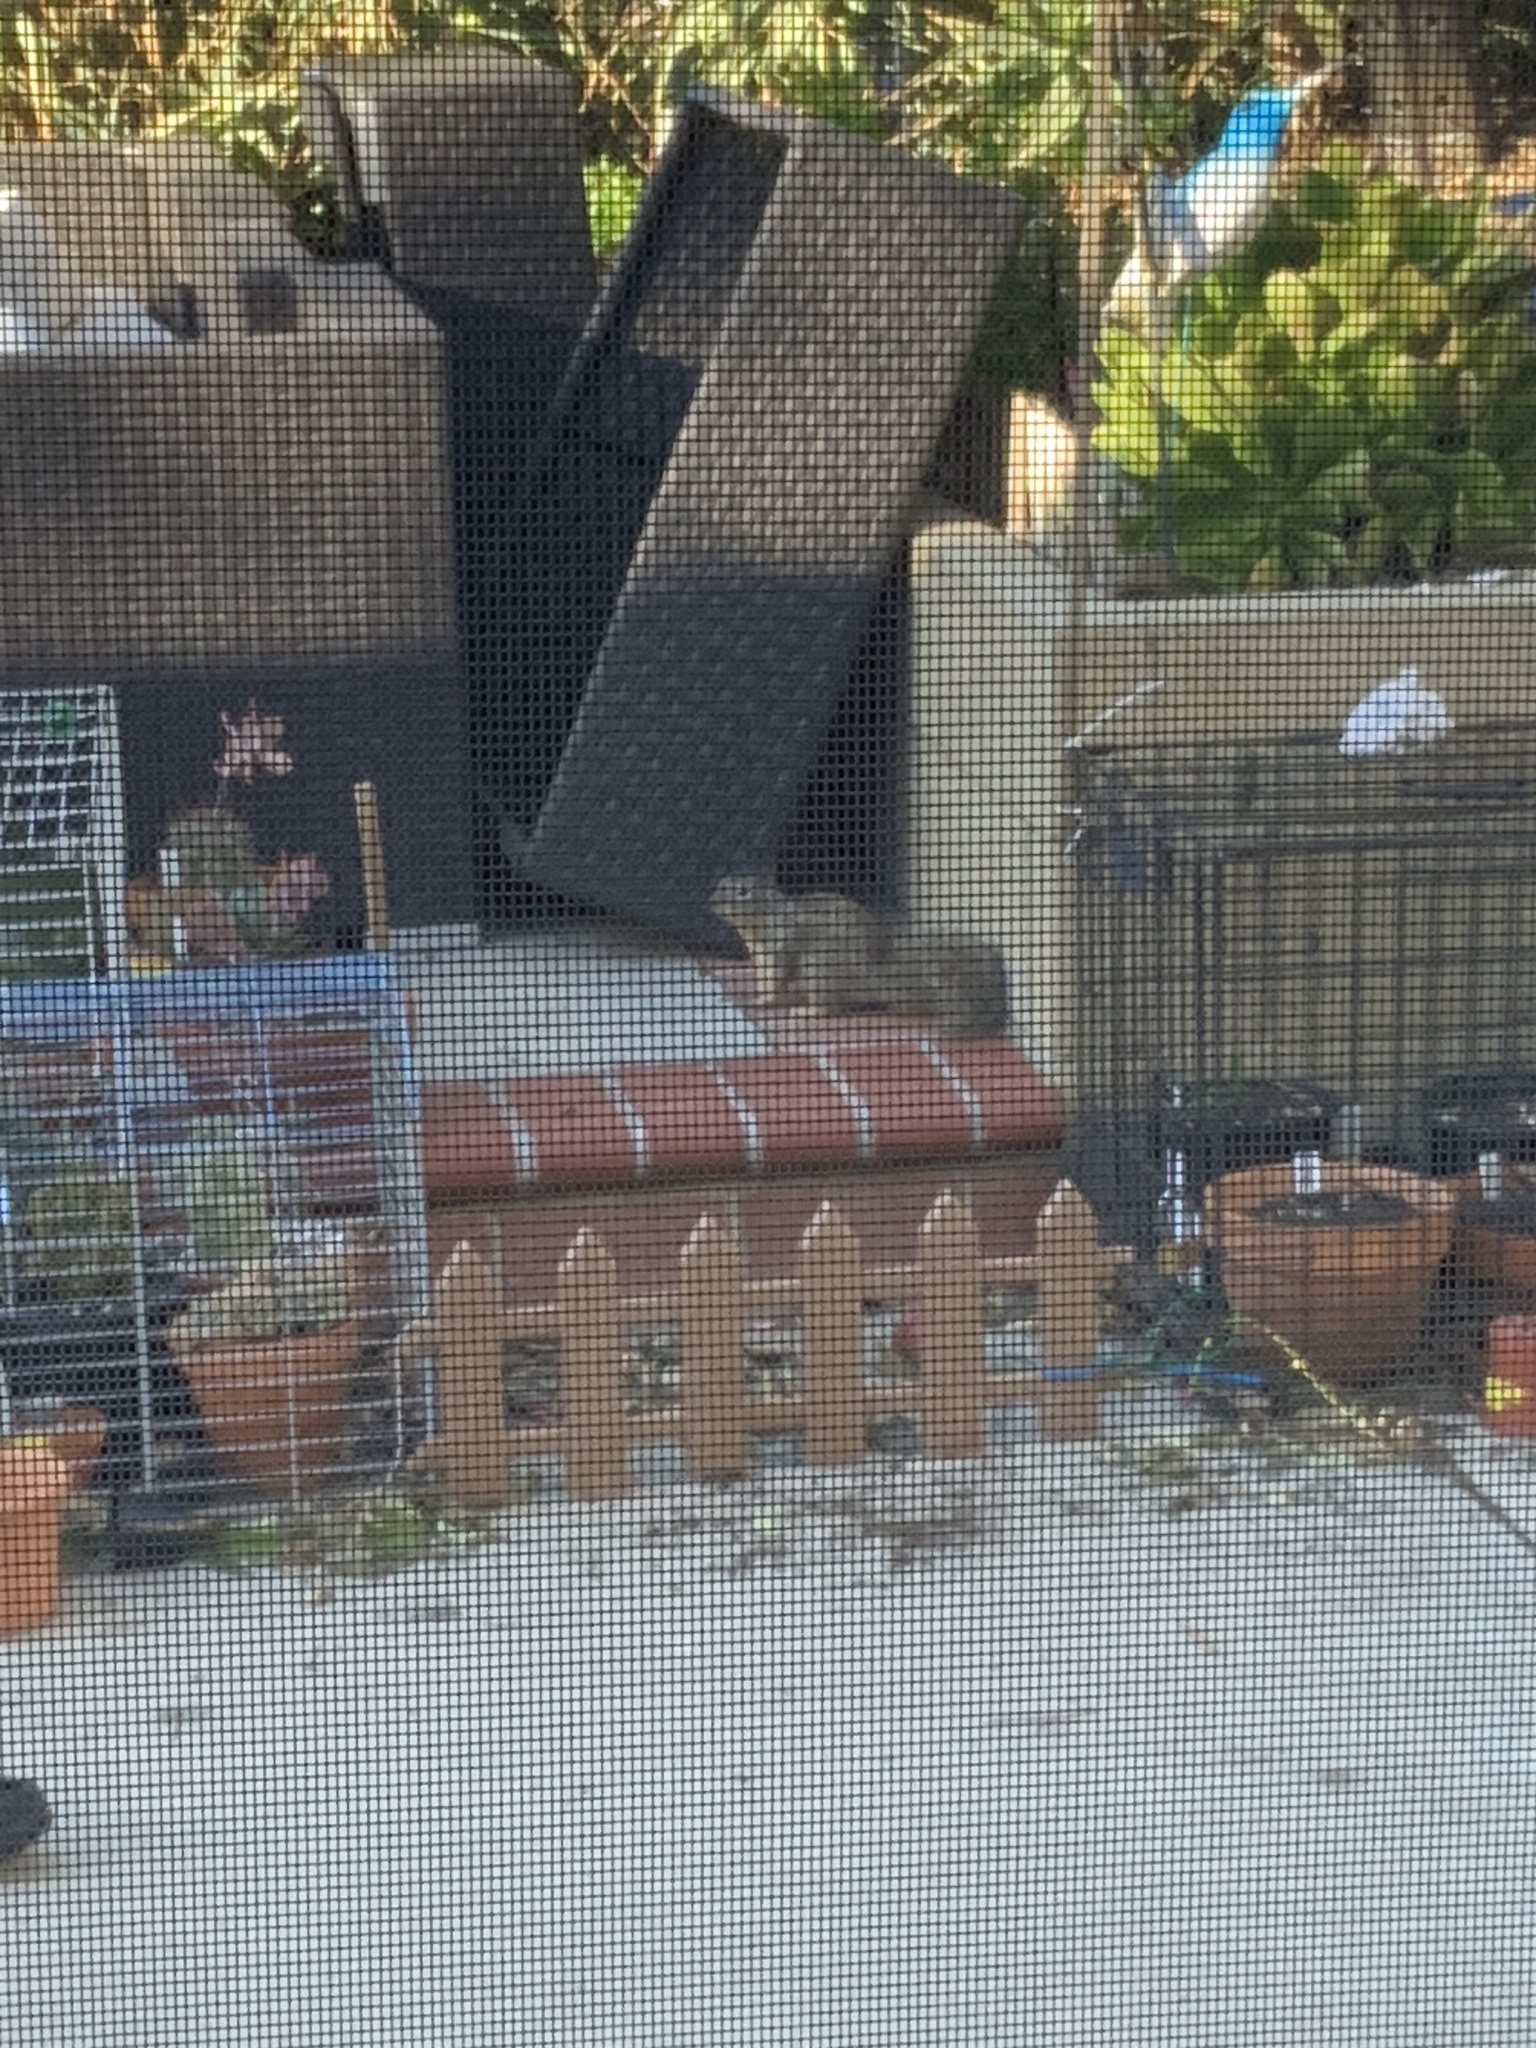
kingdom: Animalia
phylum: Chordata
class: Mammalia
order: Rodentia
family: Sciuridae
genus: Otospermophilus
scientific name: Otospermophilus beecheyi
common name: California ground squirrel
